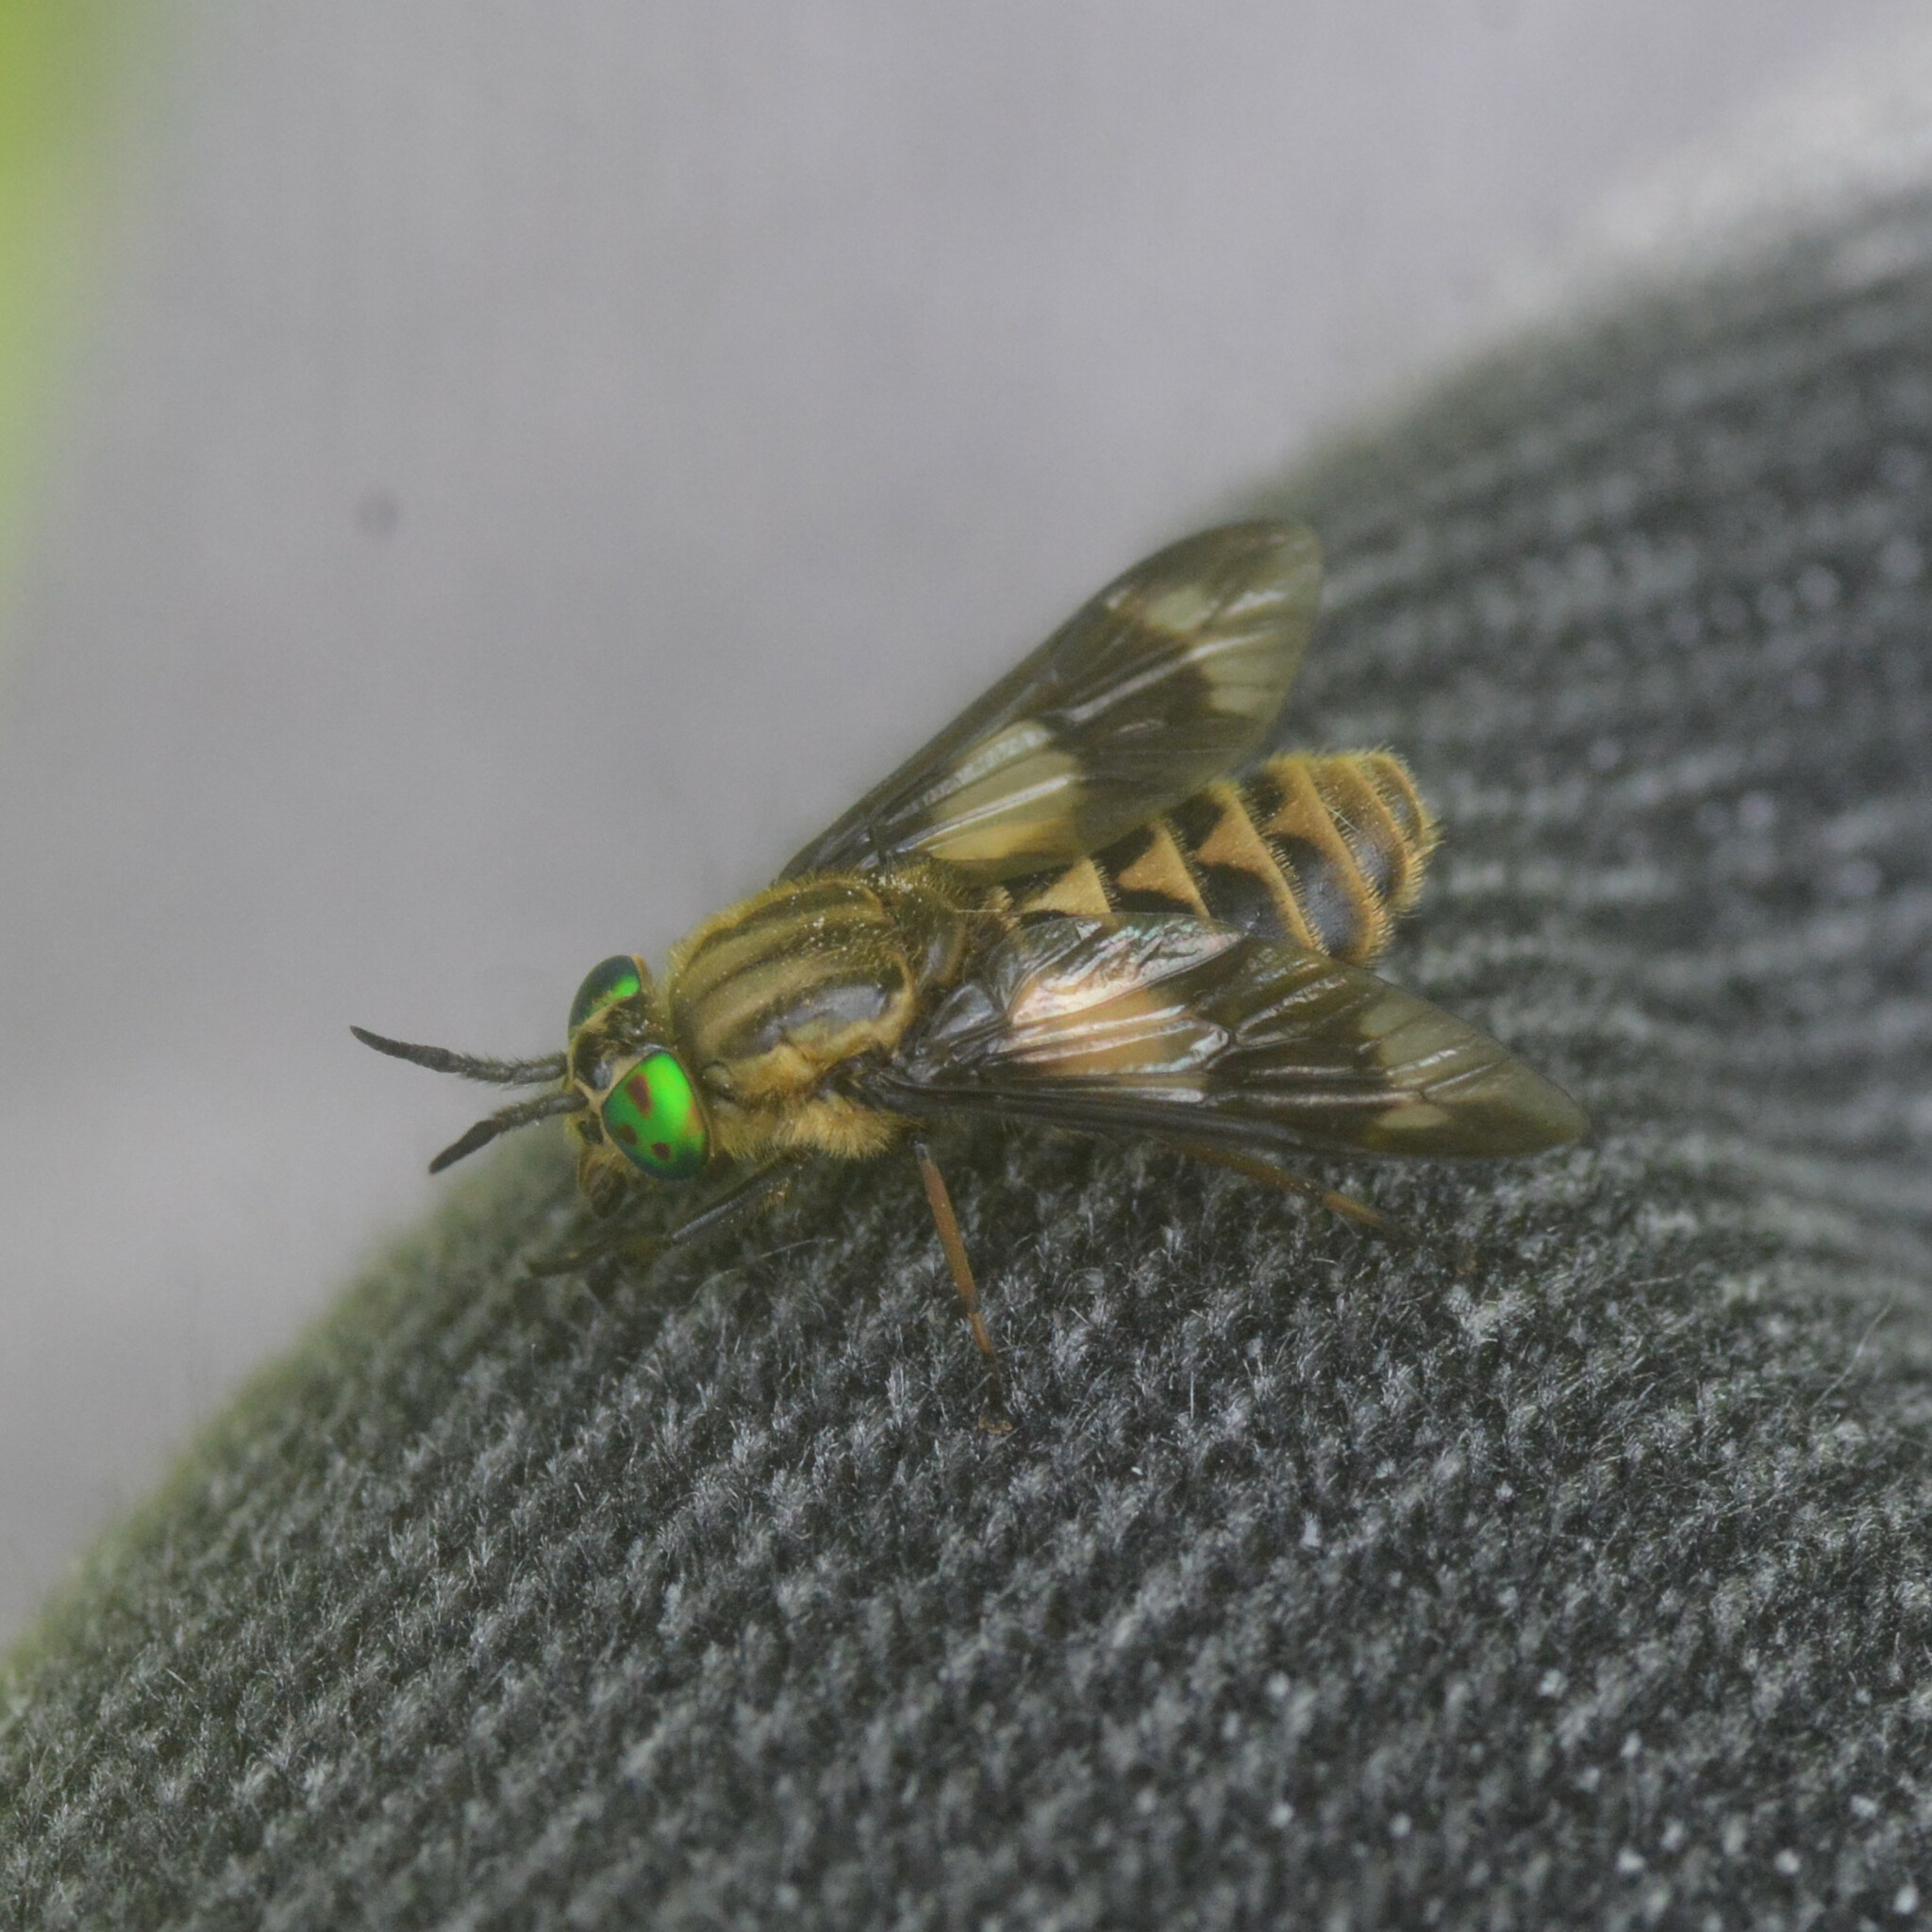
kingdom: Animalia
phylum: Arthropoda
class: Insecta
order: Diptera
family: Tabanidae
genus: Chrysops
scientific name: Chrysops relictus
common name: Twin-lobed deerfly
